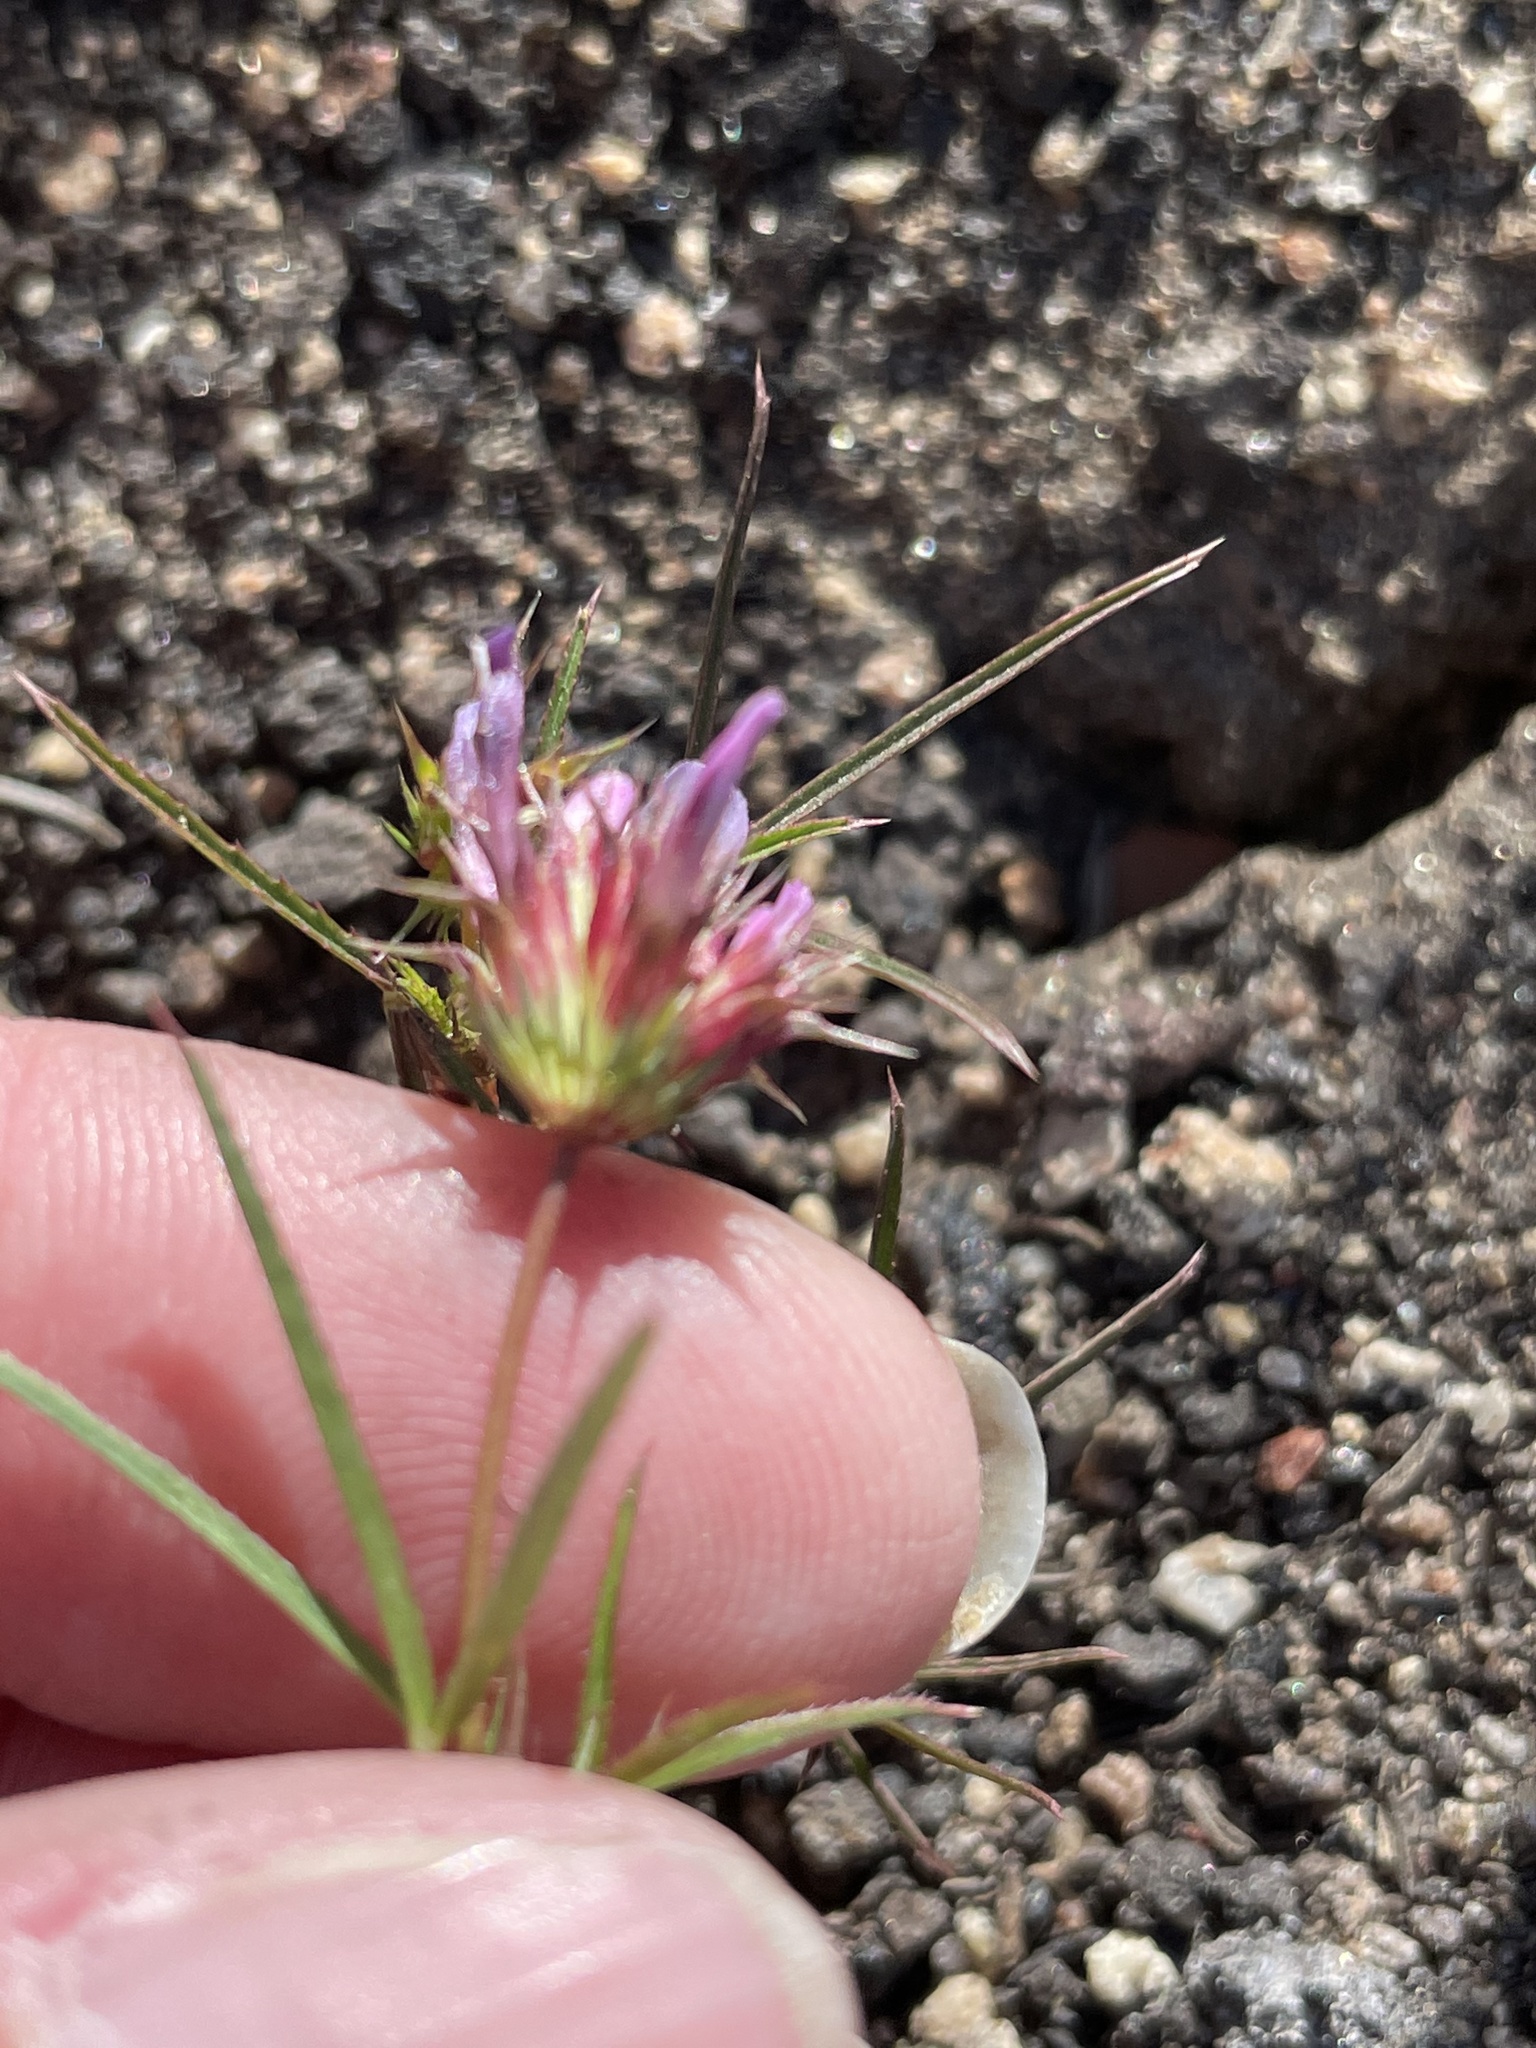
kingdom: Plantae
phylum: Tracheophyta
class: Magnoliopsida
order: Fabales
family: Fabaceae
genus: Trifolium
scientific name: Trifolium willdenovii
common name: Tomcat clover
